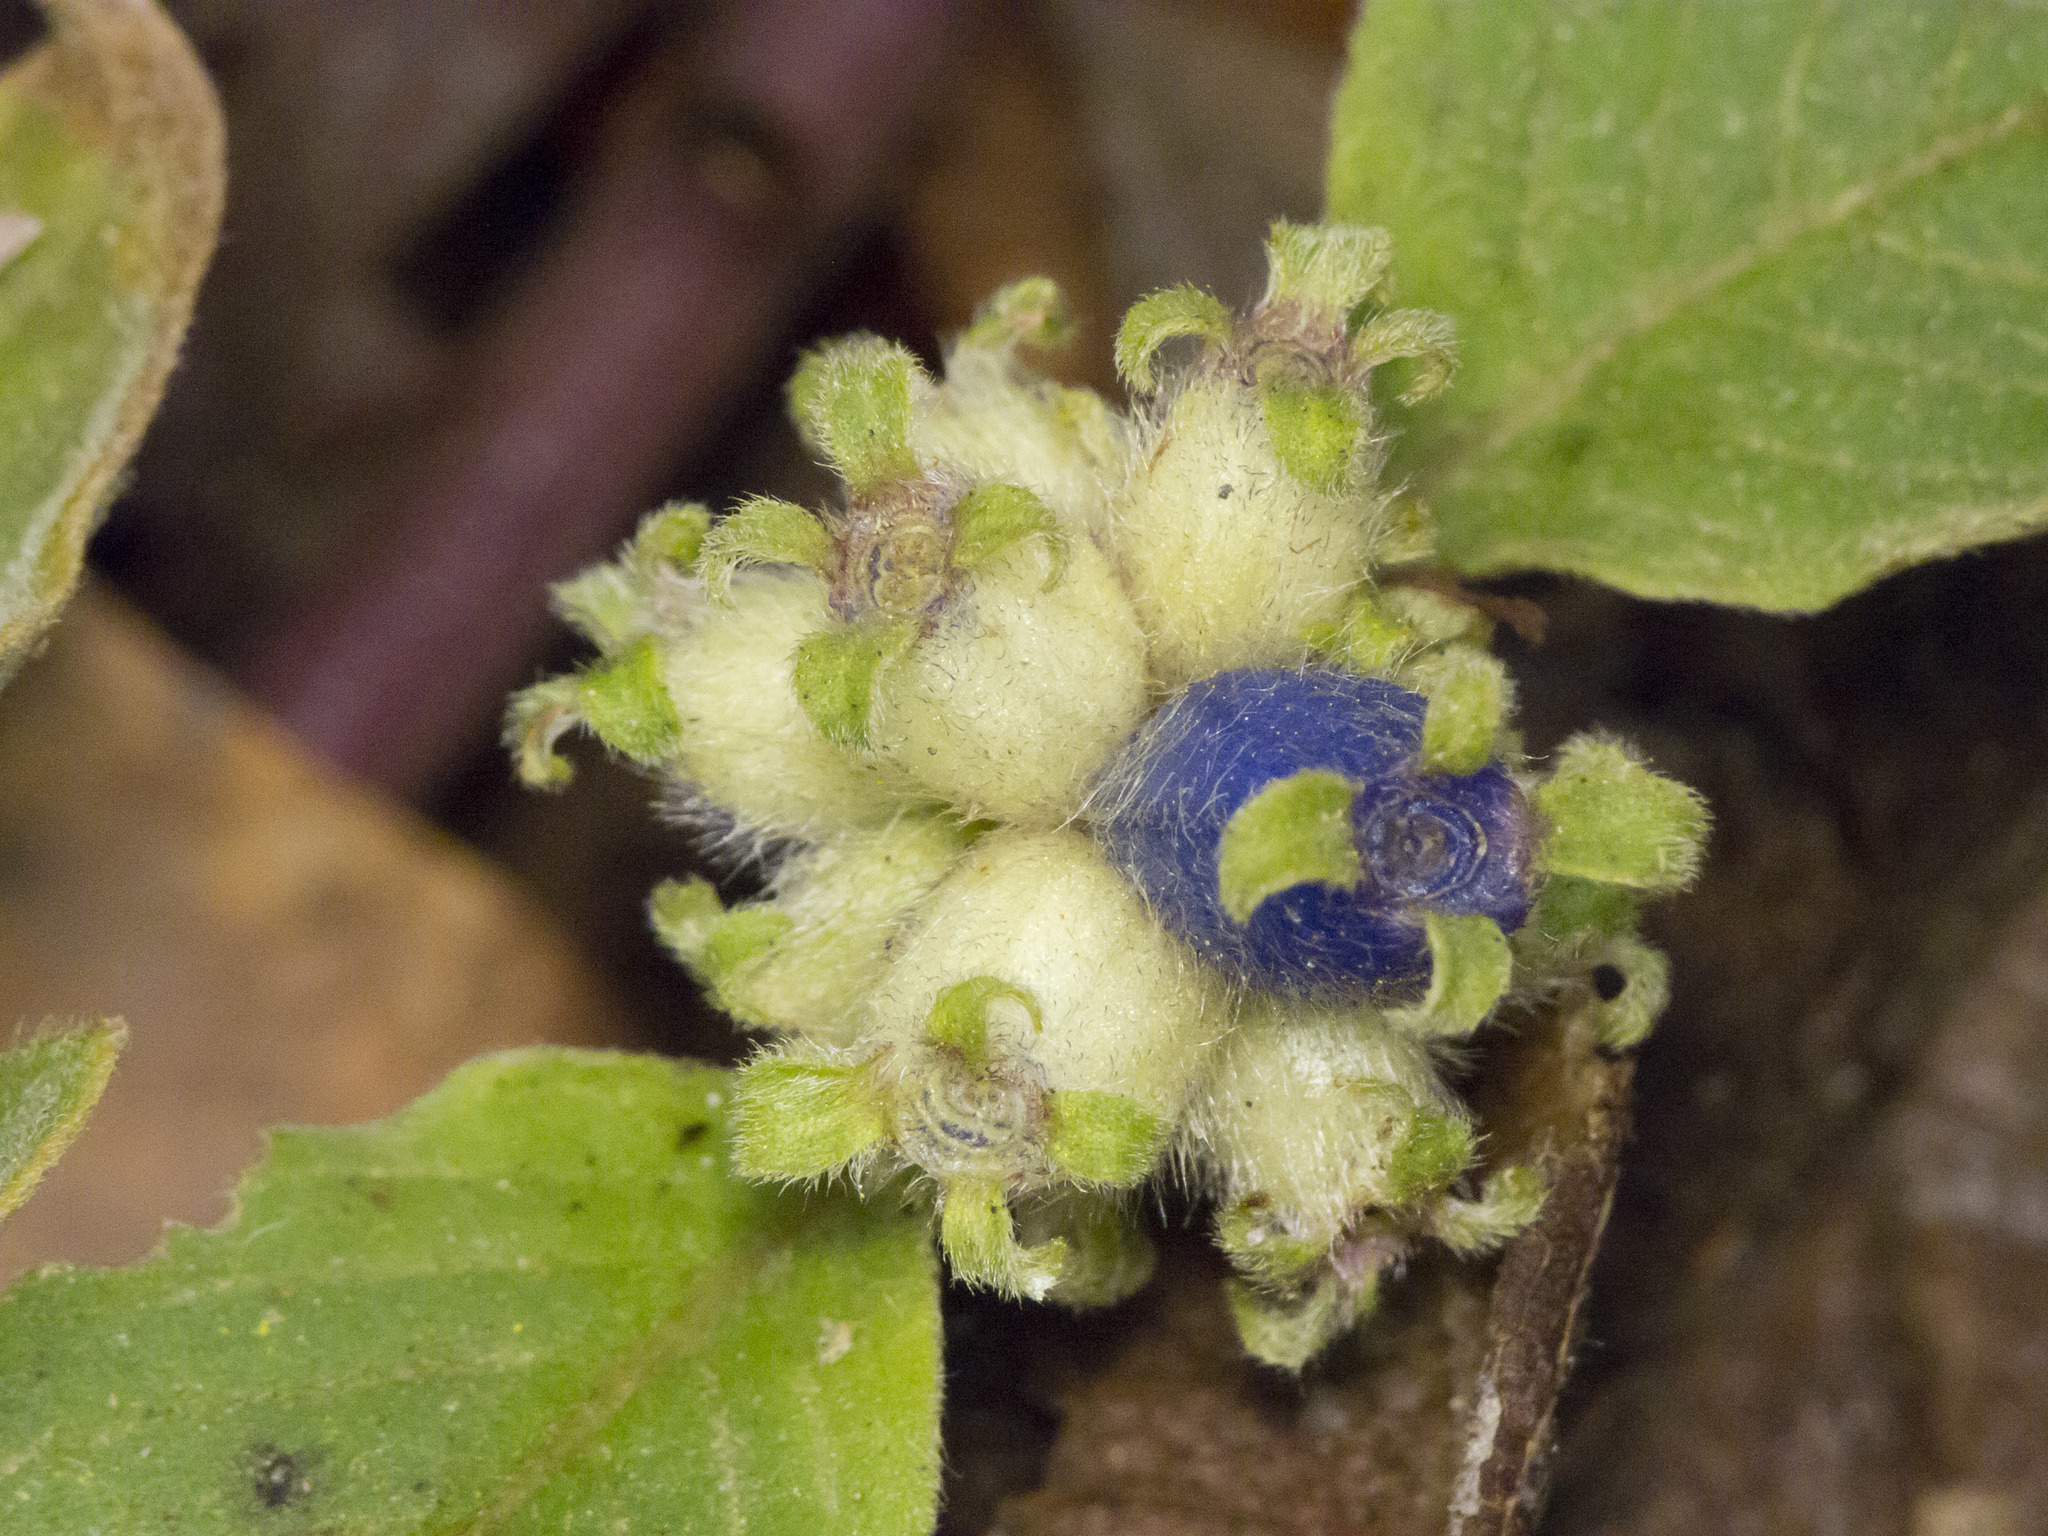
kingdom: Plantae
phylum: Tracheophyta
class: Magnoliopsida
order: Gentianales
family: Rubiaceae
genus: Coccocypselum
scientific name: Coccocypselum hirsutum
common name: Yerba de guava
